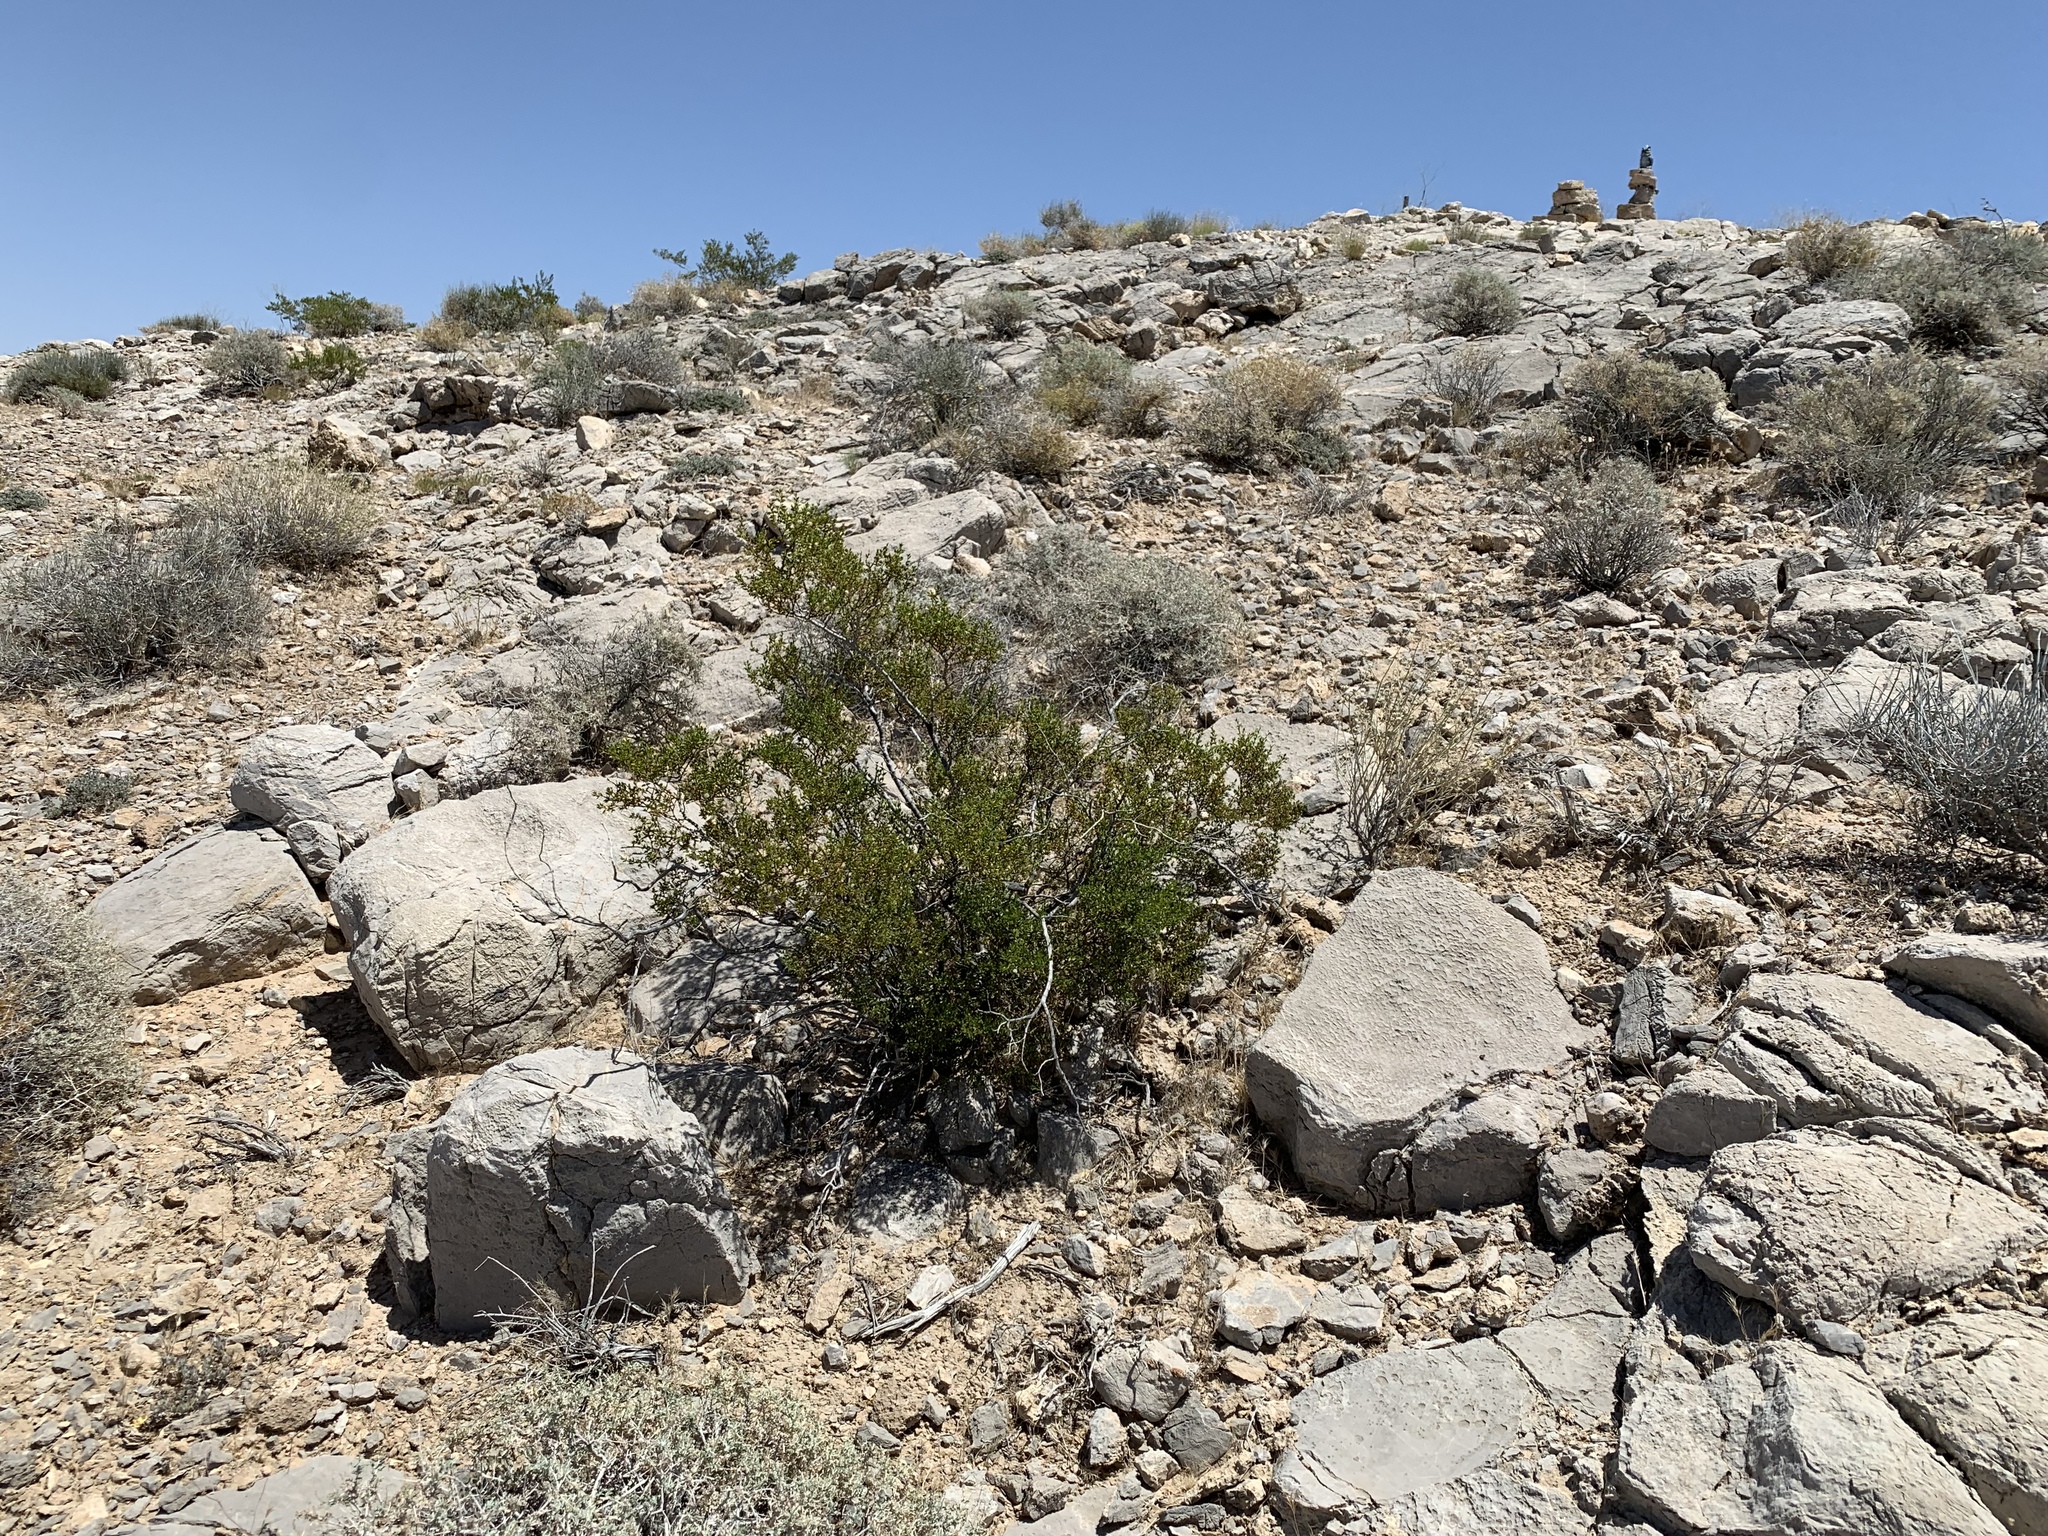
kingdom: Plantae
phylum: Tracheophyta
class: Magnoliopsida
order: Zygophyllales
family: Zygophyllaceae
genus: Larrea
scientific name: Larrea tridentata
